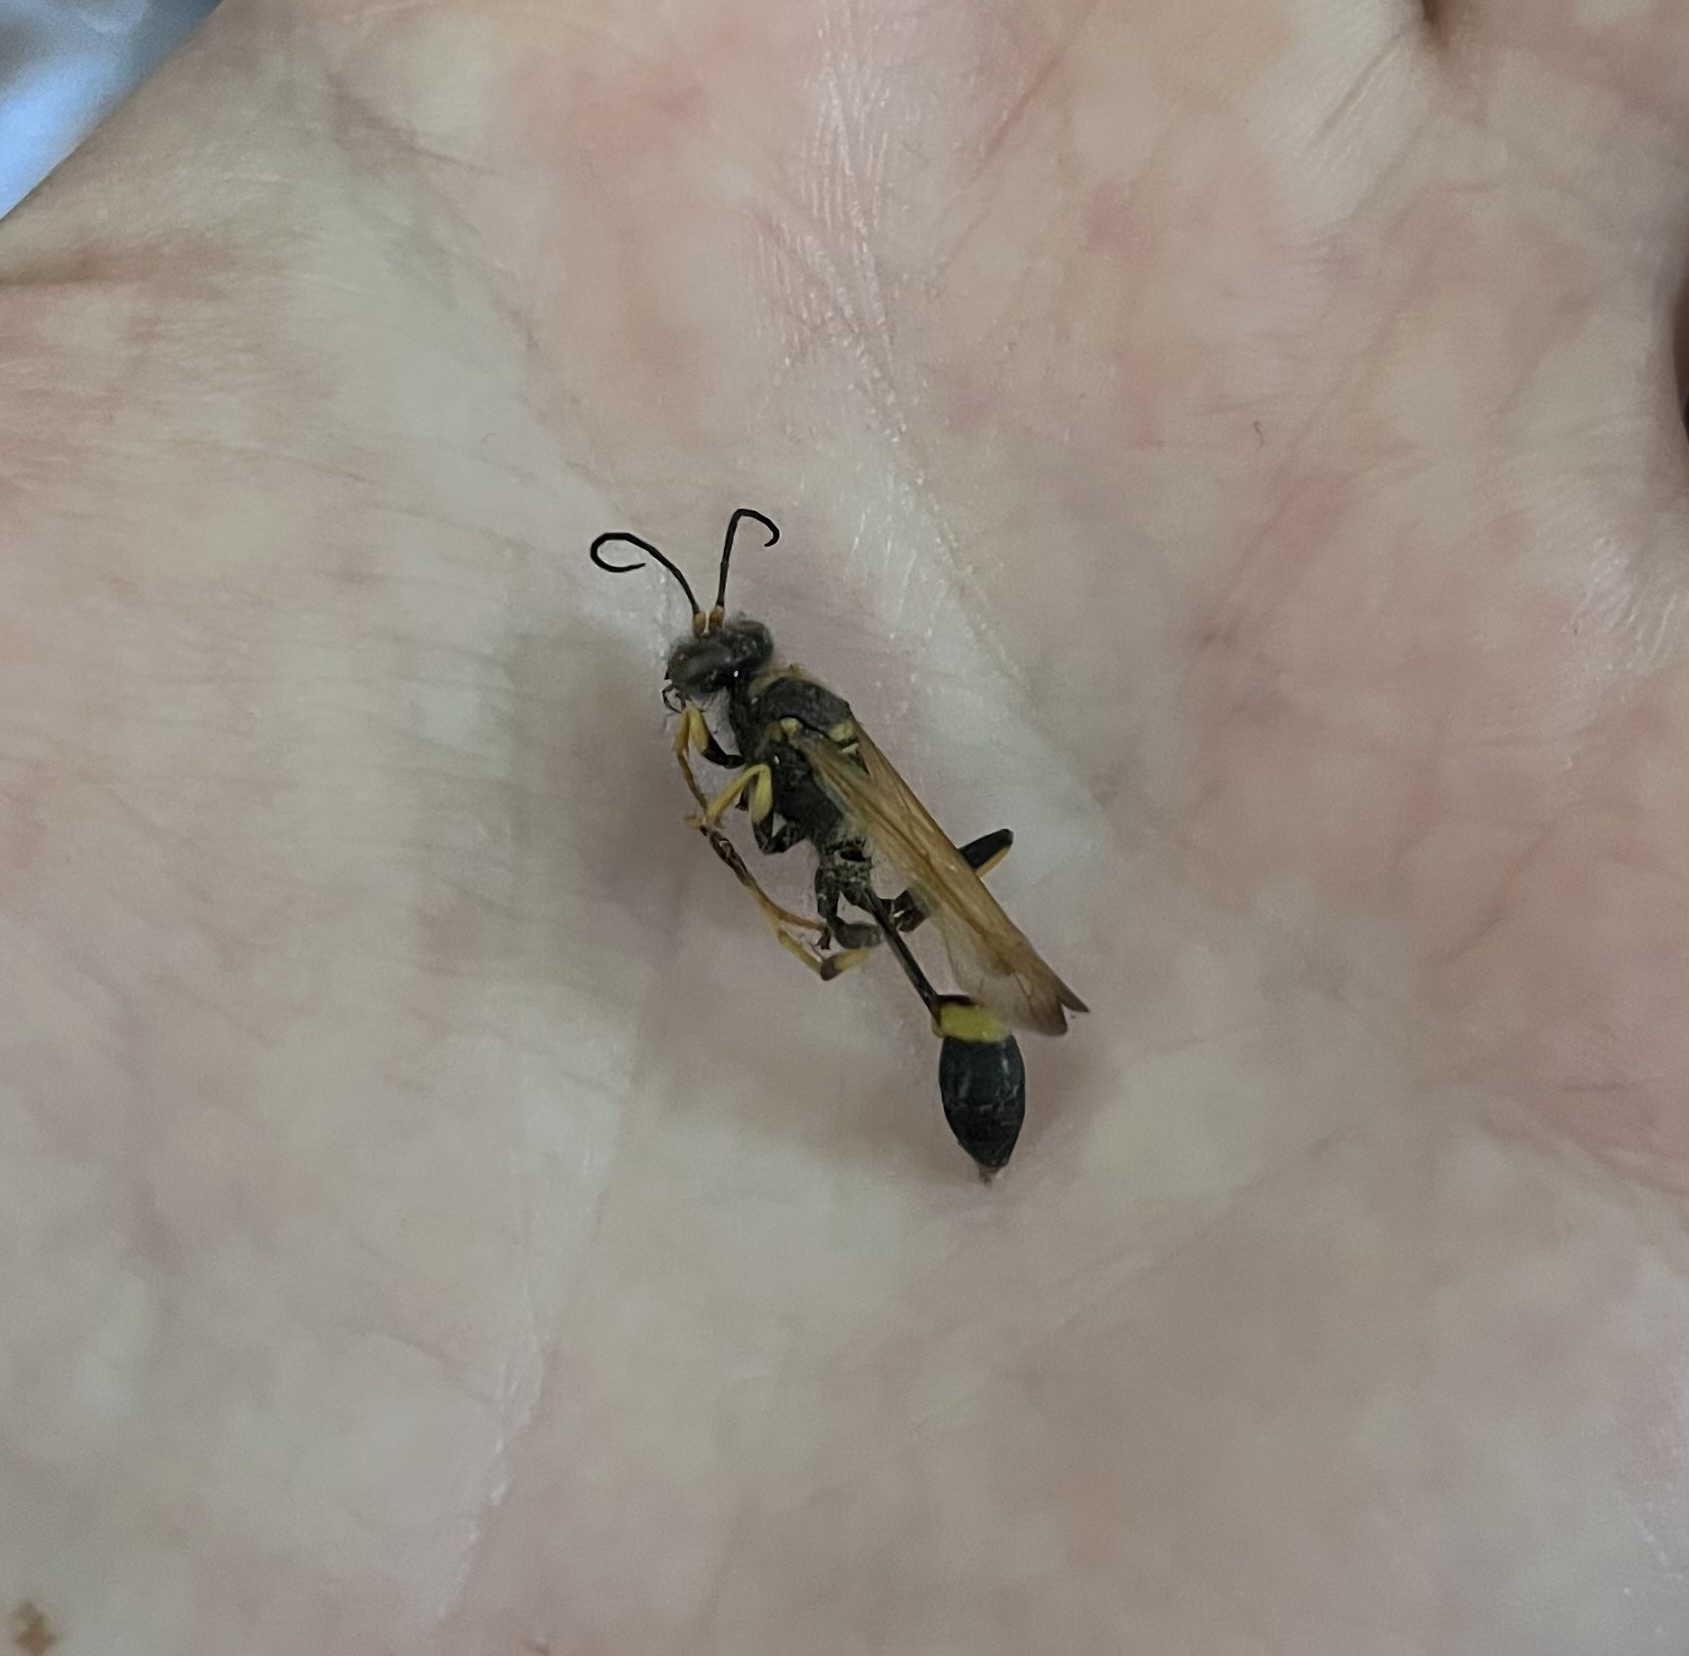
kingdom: Animalia
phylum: Arthropoda
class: Insecta
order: Hymenoptera
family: Sphecidae
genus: Sceliphron
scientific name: Sceliphron caementarium
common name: Mud dauber
